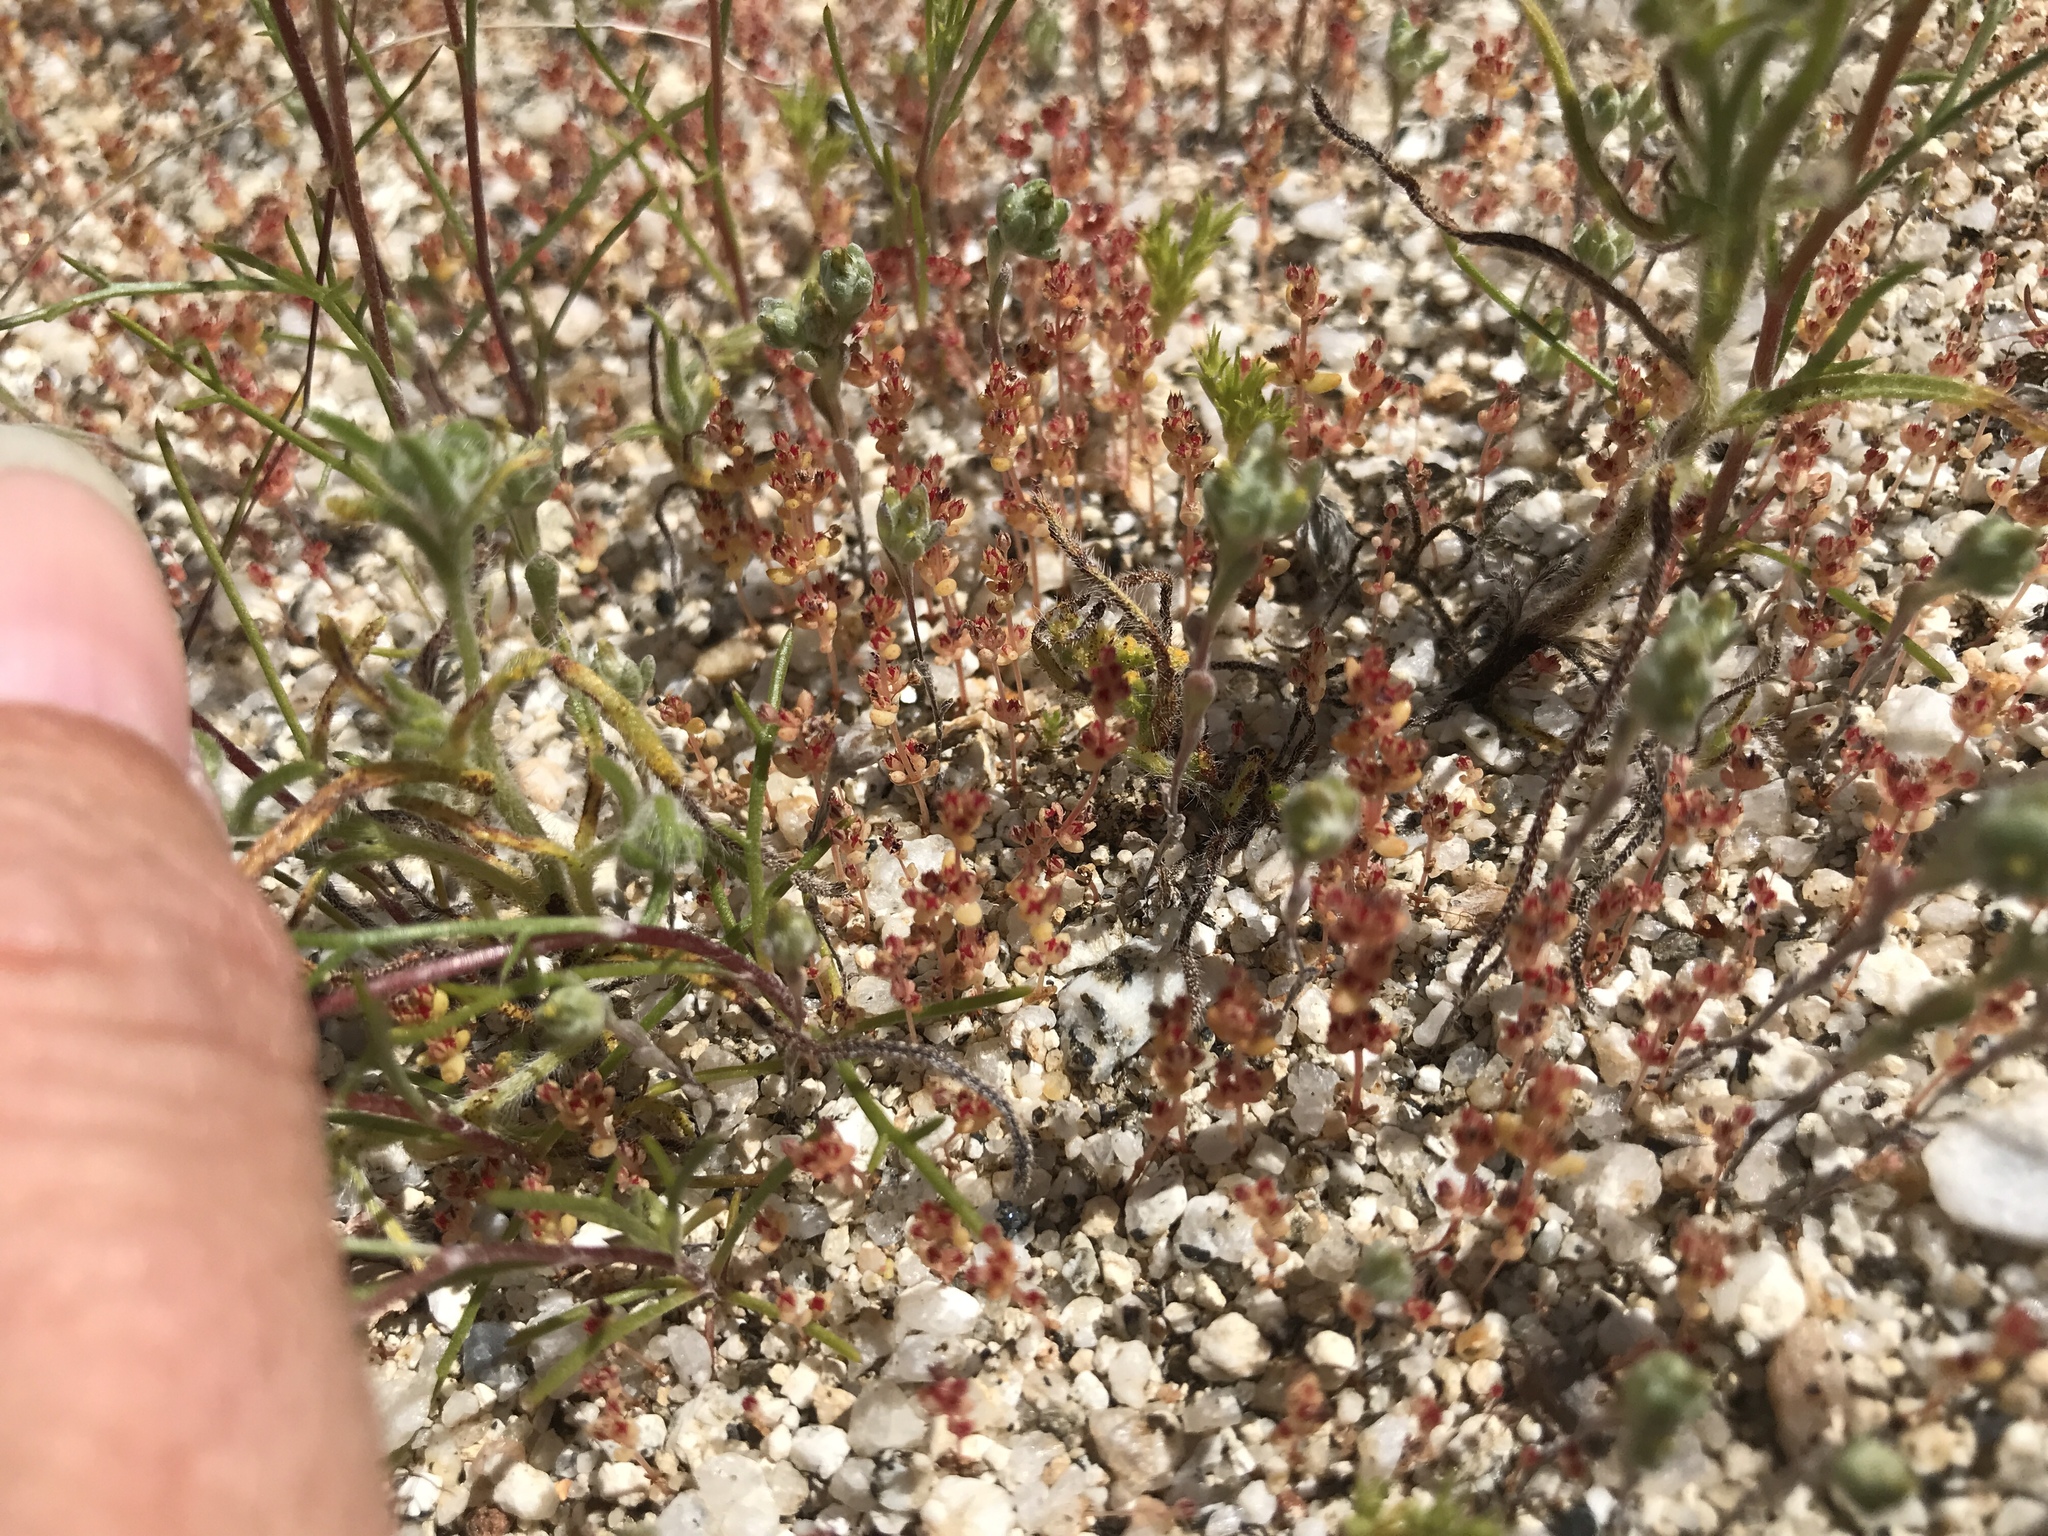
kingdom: Plantae
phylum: Tracheophyta
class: Magnoliopsida
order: Saxifragales
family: Crassulaceae
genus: Crassula
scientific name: Crassula connata
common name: Erect pygmyweed
